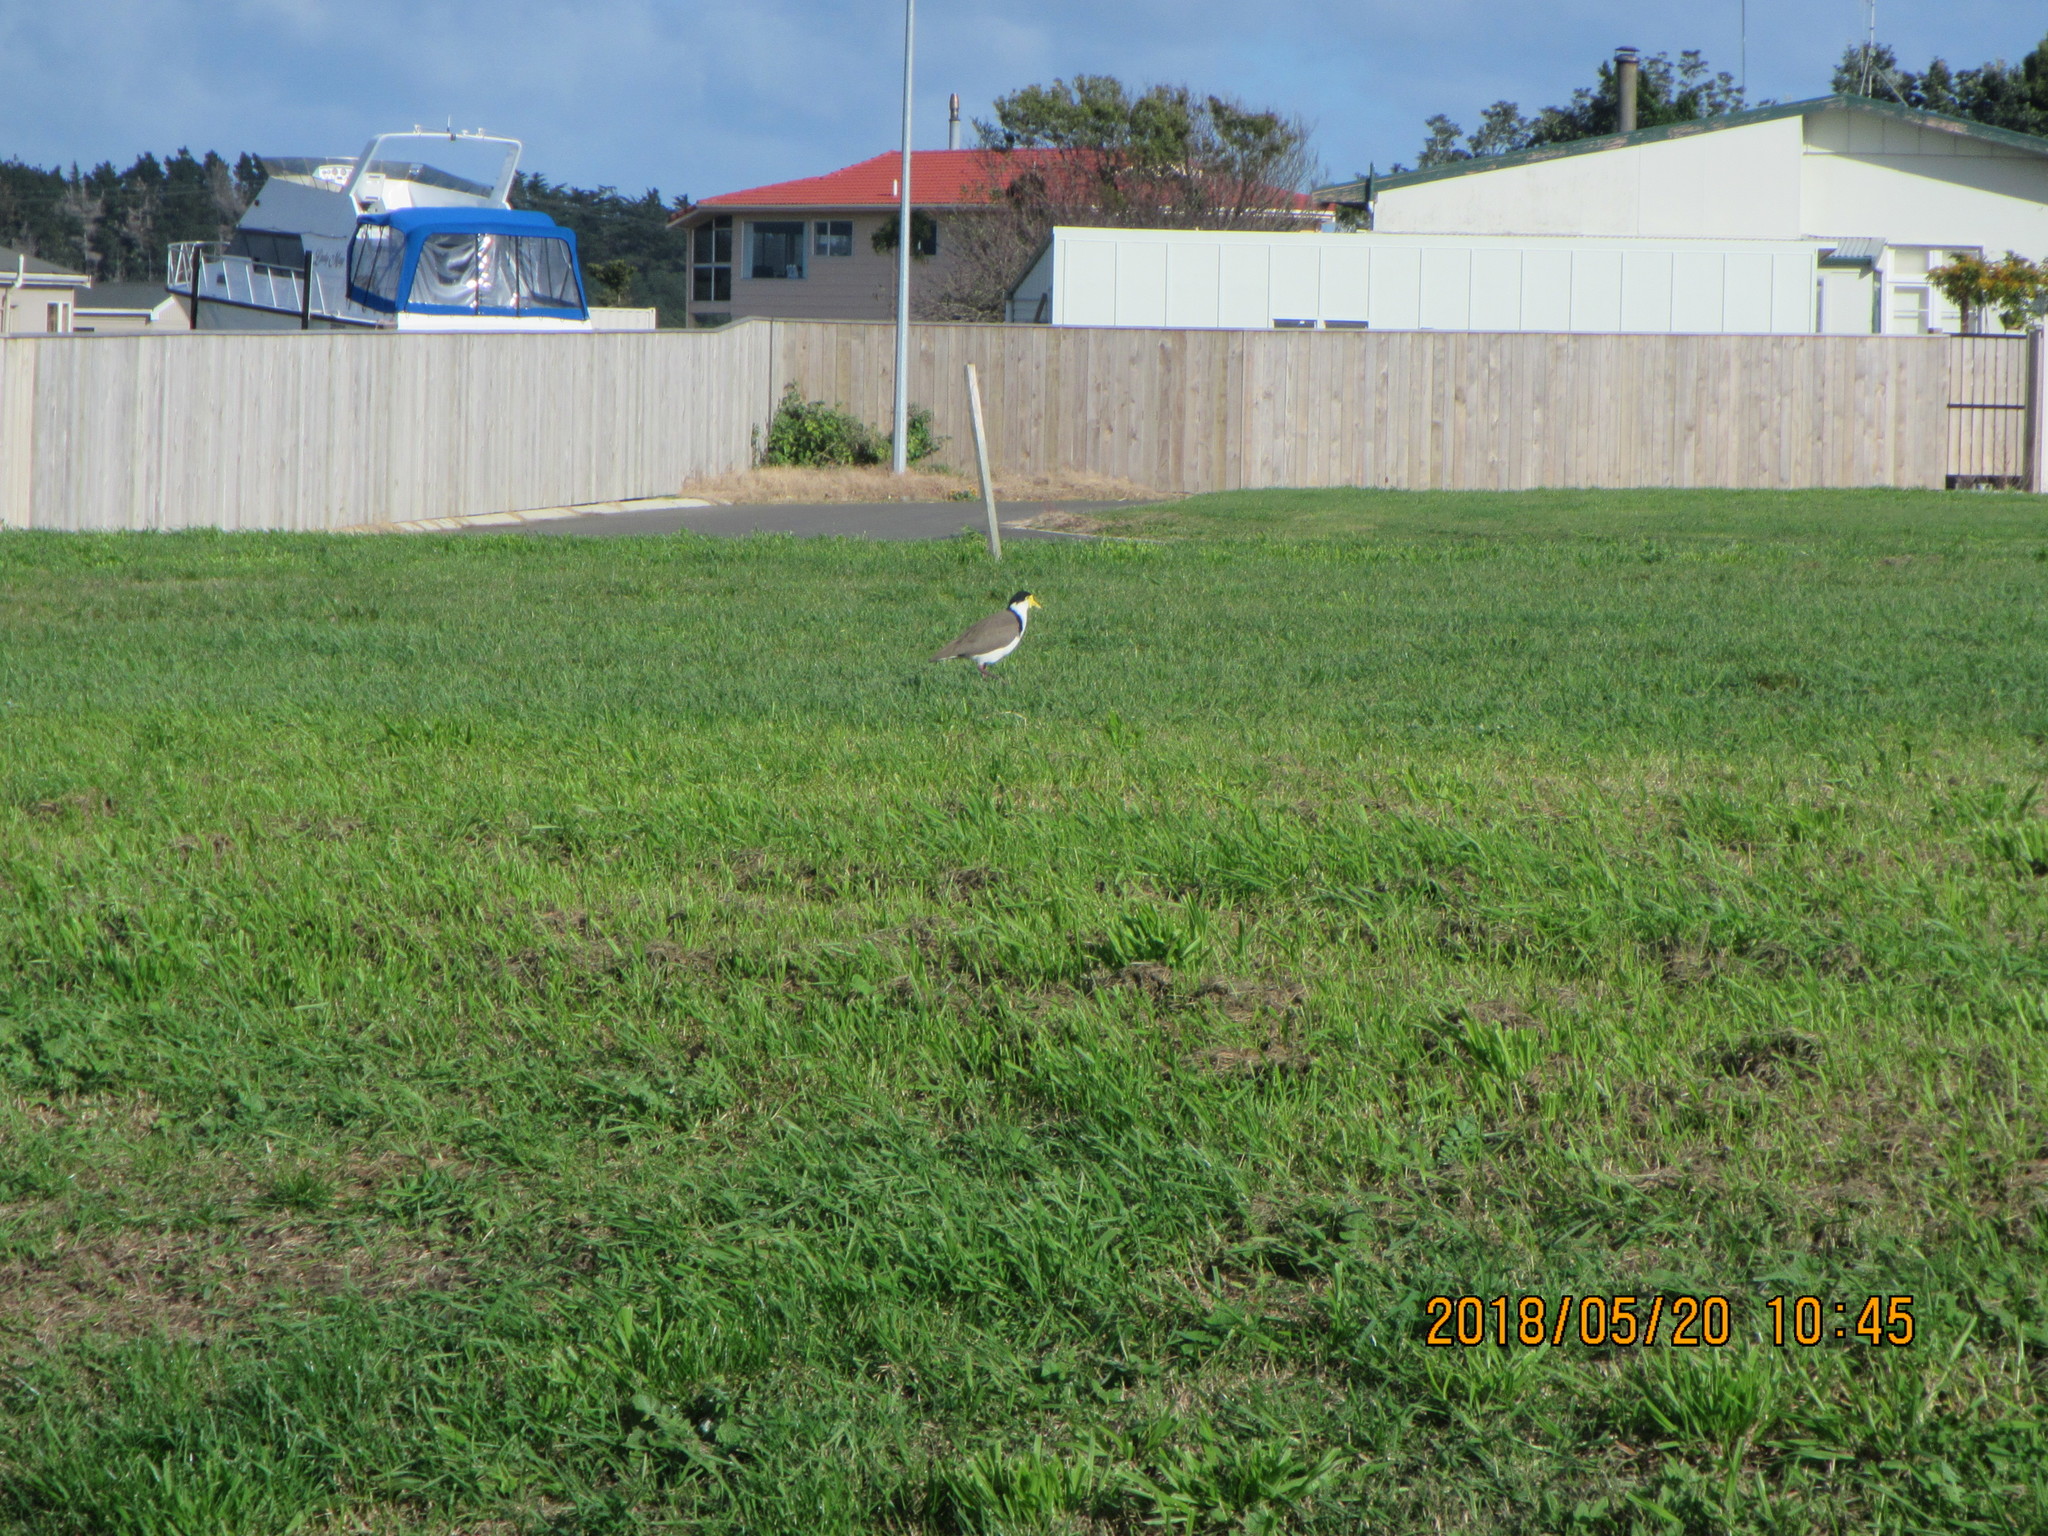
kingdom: Animalia
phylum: Chordata
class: Aves
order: Charadriiformes
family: Charadriidae
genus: Vanellus
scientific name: Vanellus miles
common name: Masked lapwing
